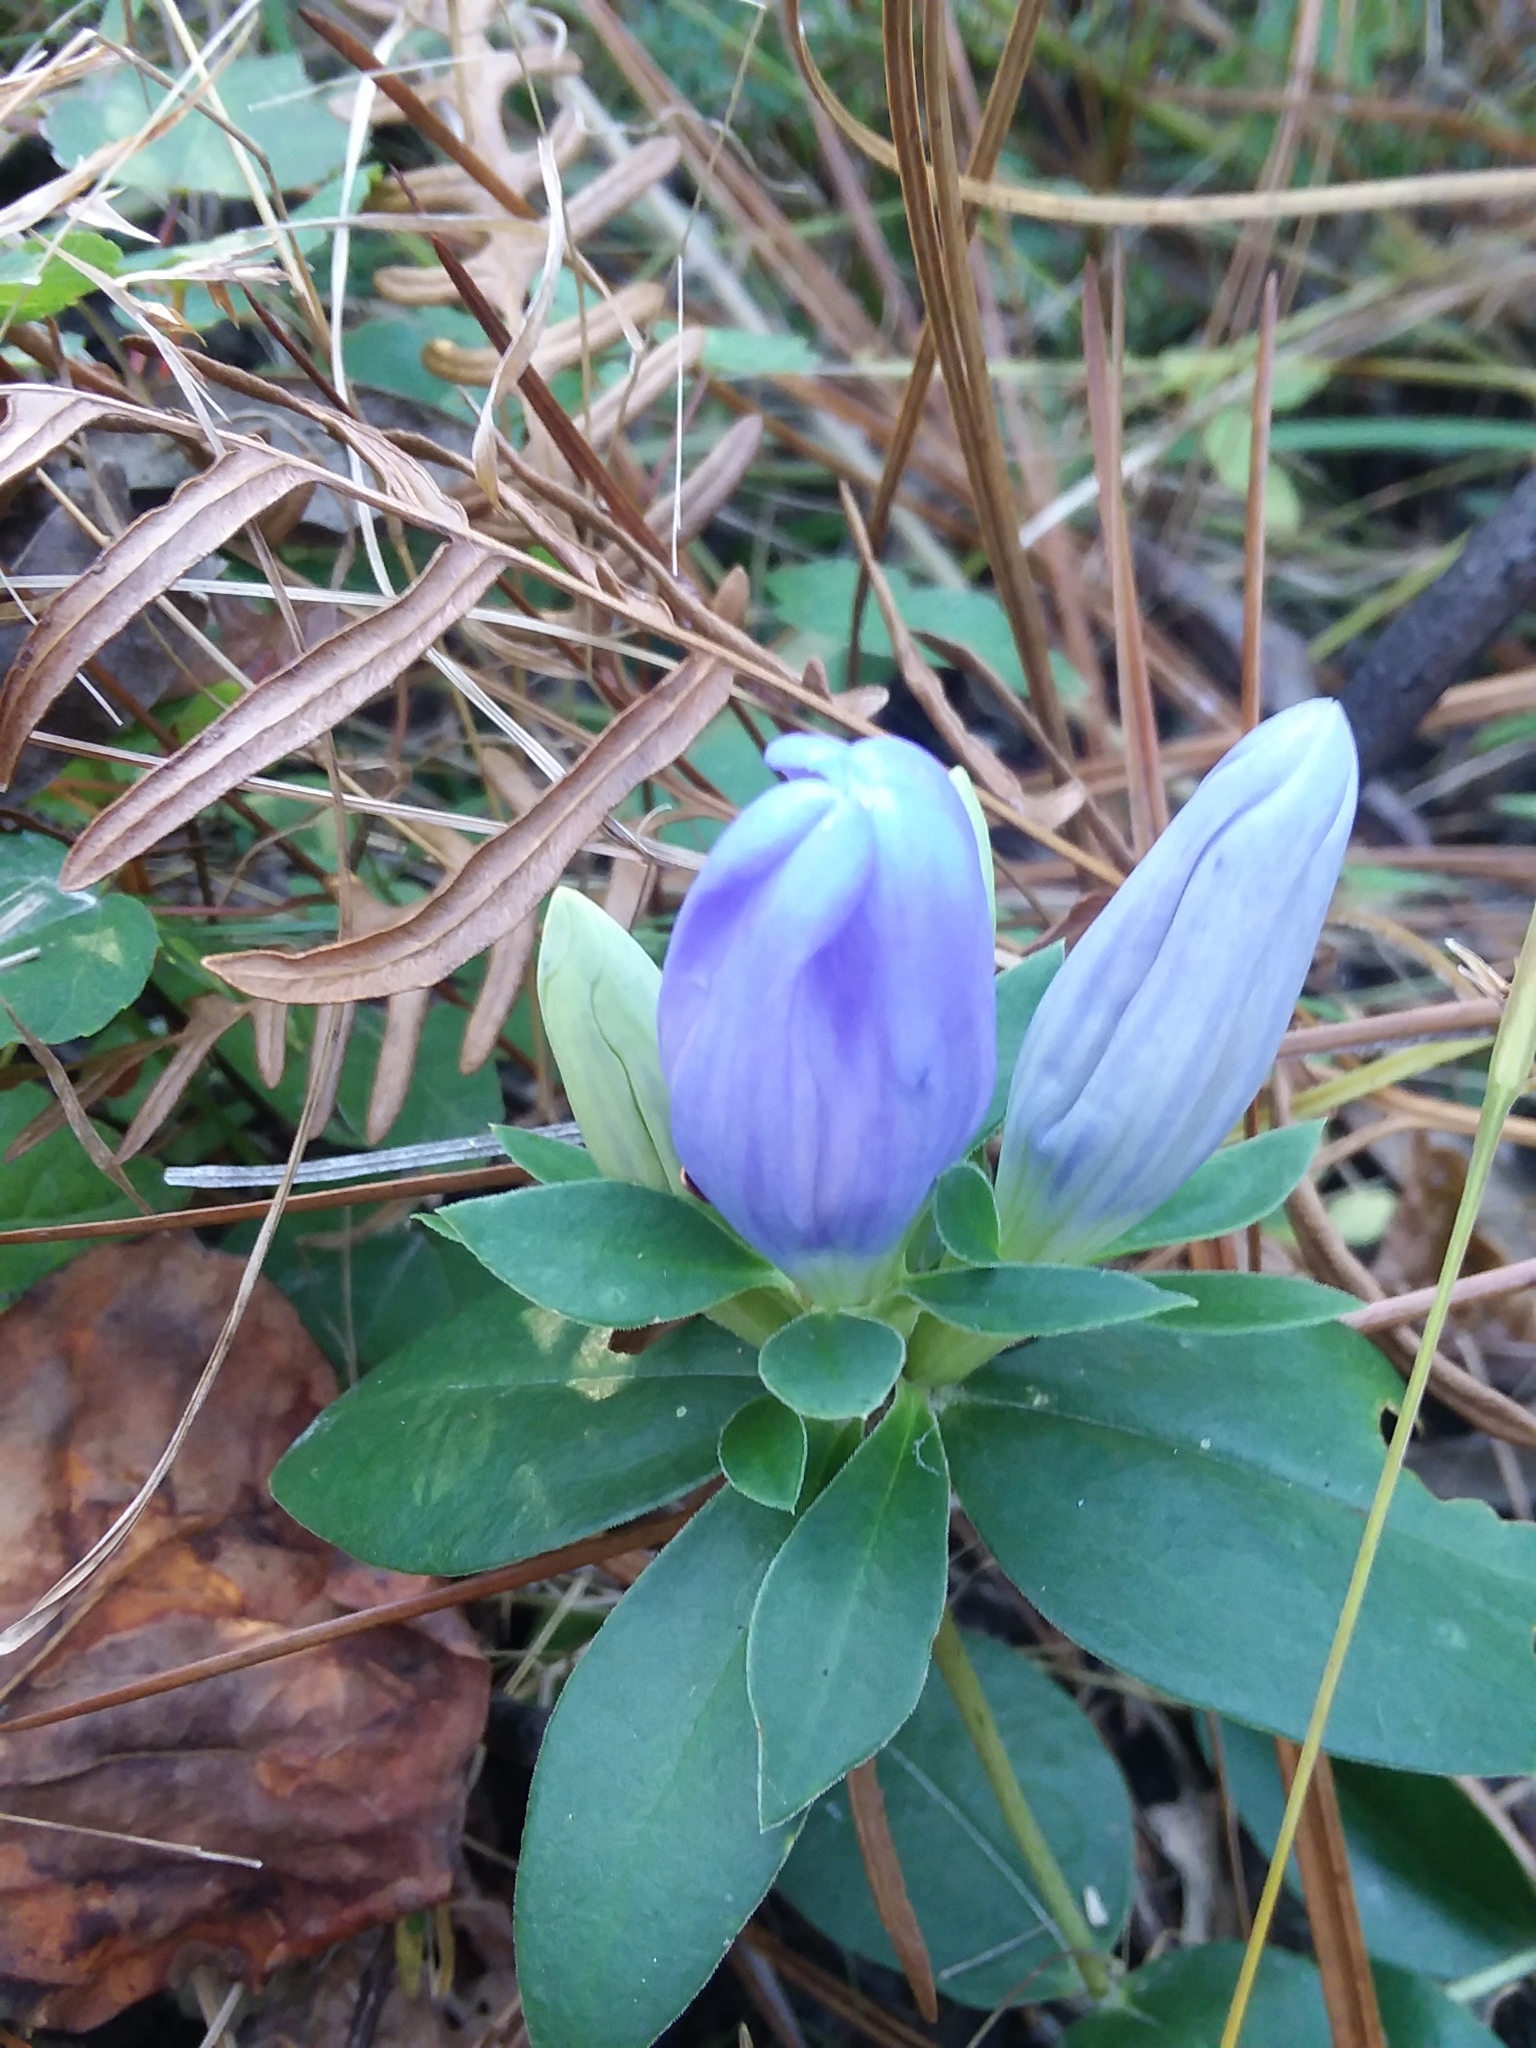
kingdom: Plantae
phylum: Tracheophyta
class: Magnoliopsida
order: Gentianales
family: Gentianaceae
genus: Gentiana
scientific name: Gentiana catesbaei
